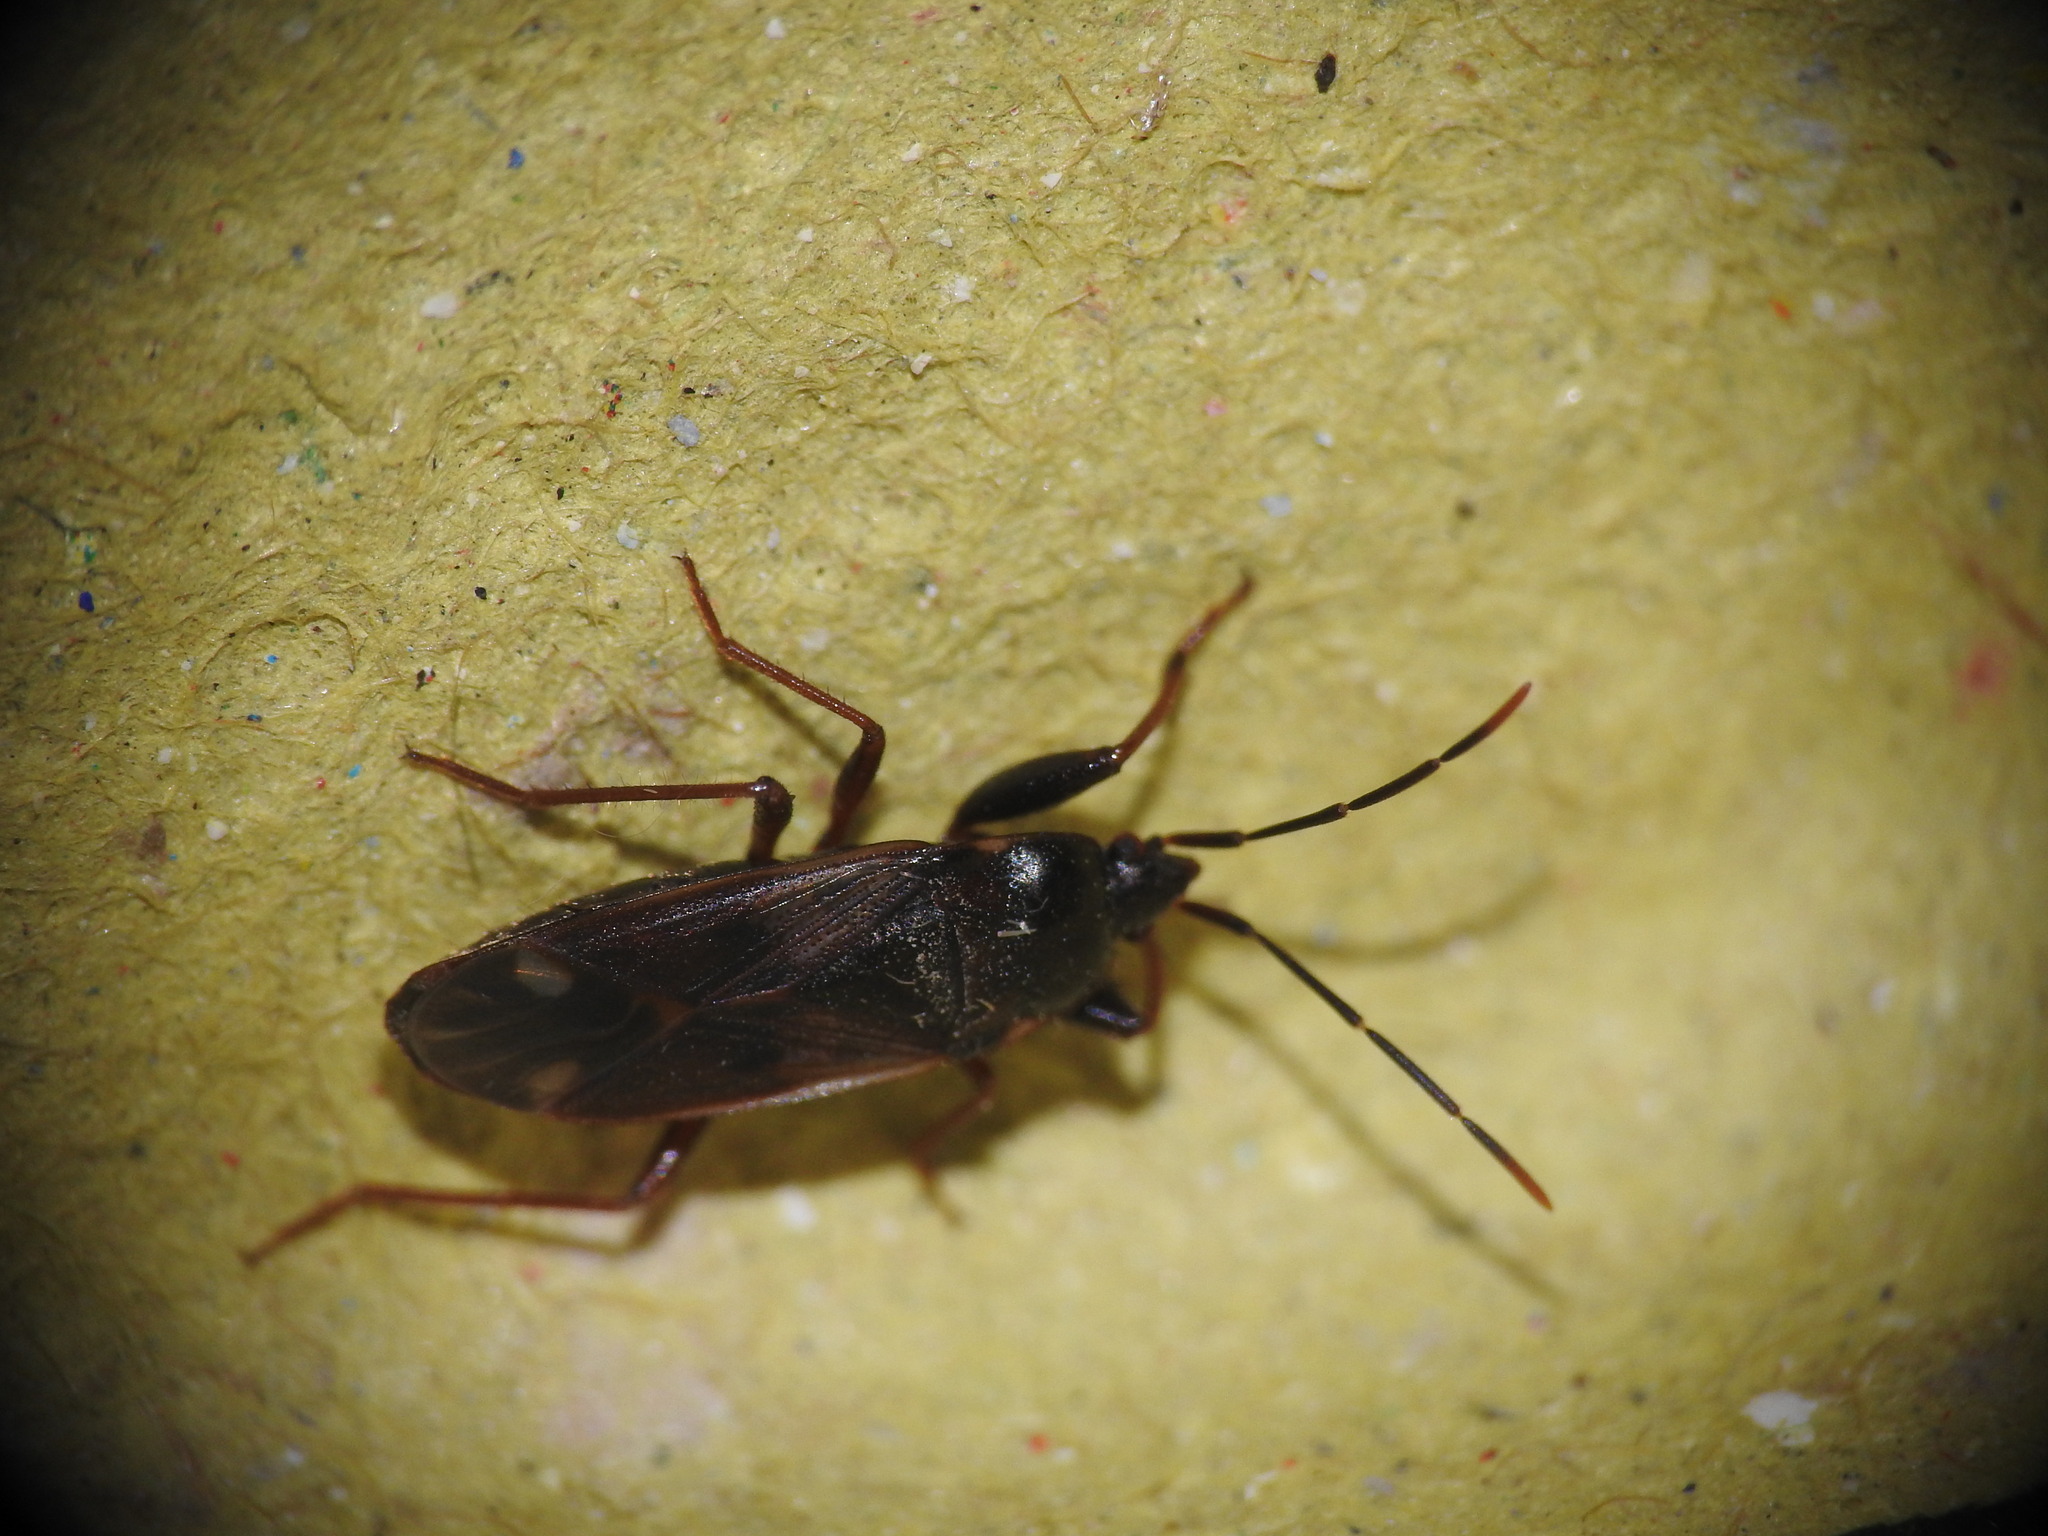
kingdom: Animalia
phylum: Arthropoda
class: Insecta
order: Hemiptera
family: Rhyparochromidae
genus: Eremocoris
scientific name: Eremocoris fenestratus
